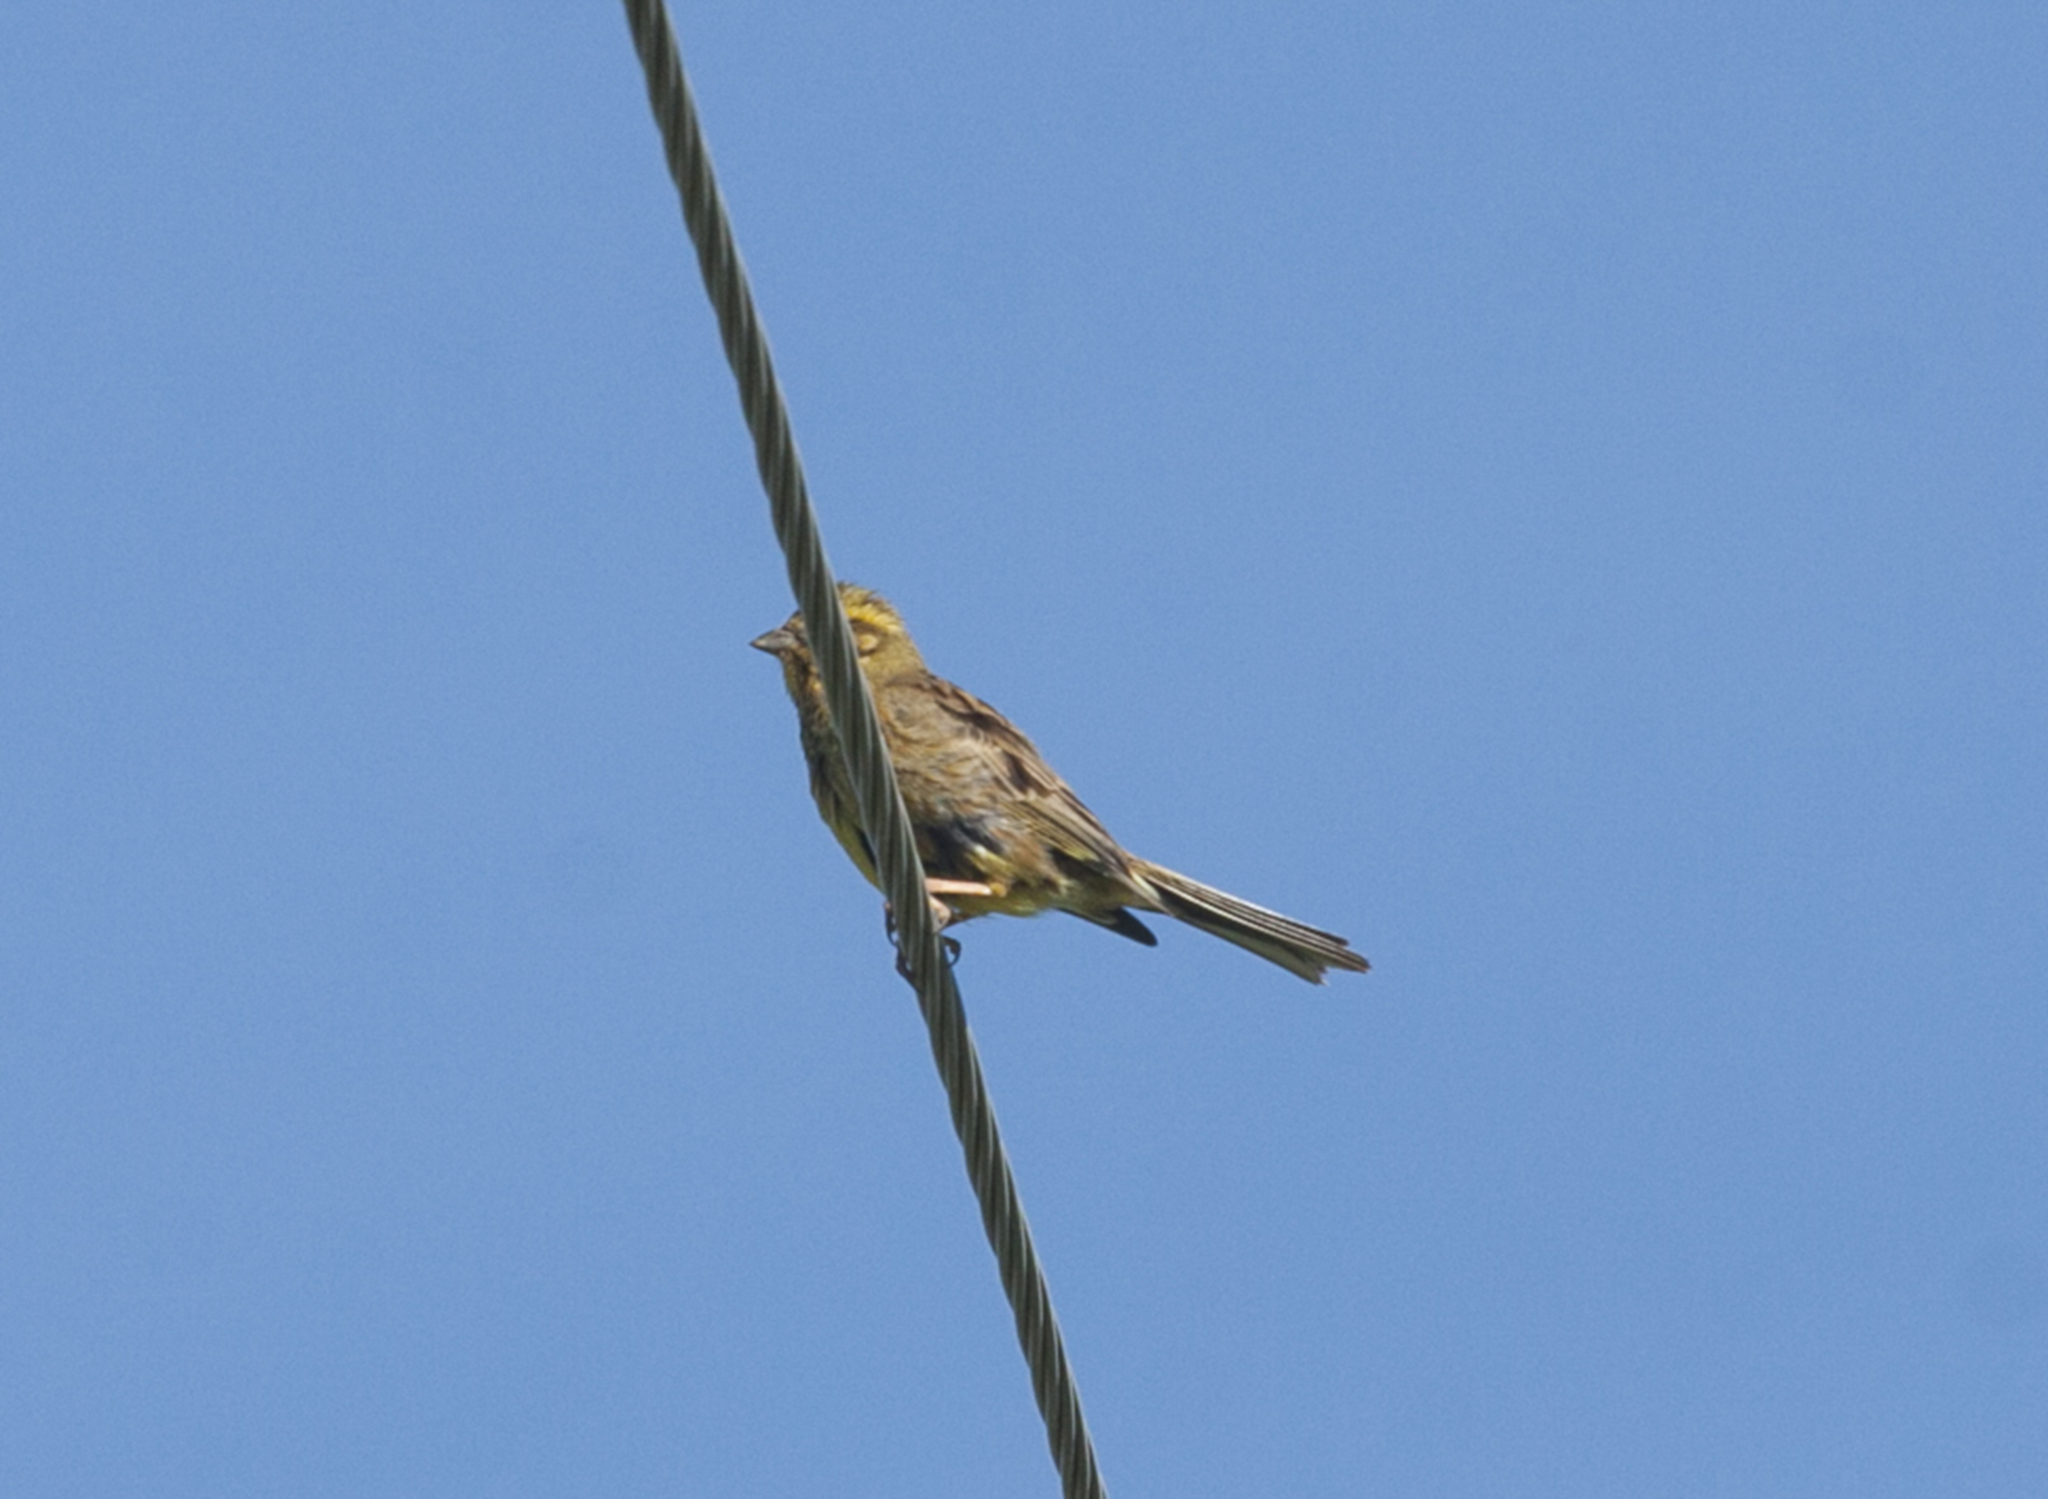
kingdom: Animalia
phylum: Chordata
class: Aves
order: Passeriformes
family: Emberizidae
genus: Emberiza
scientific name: Emberiza citrinella
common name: Yellowhammer
